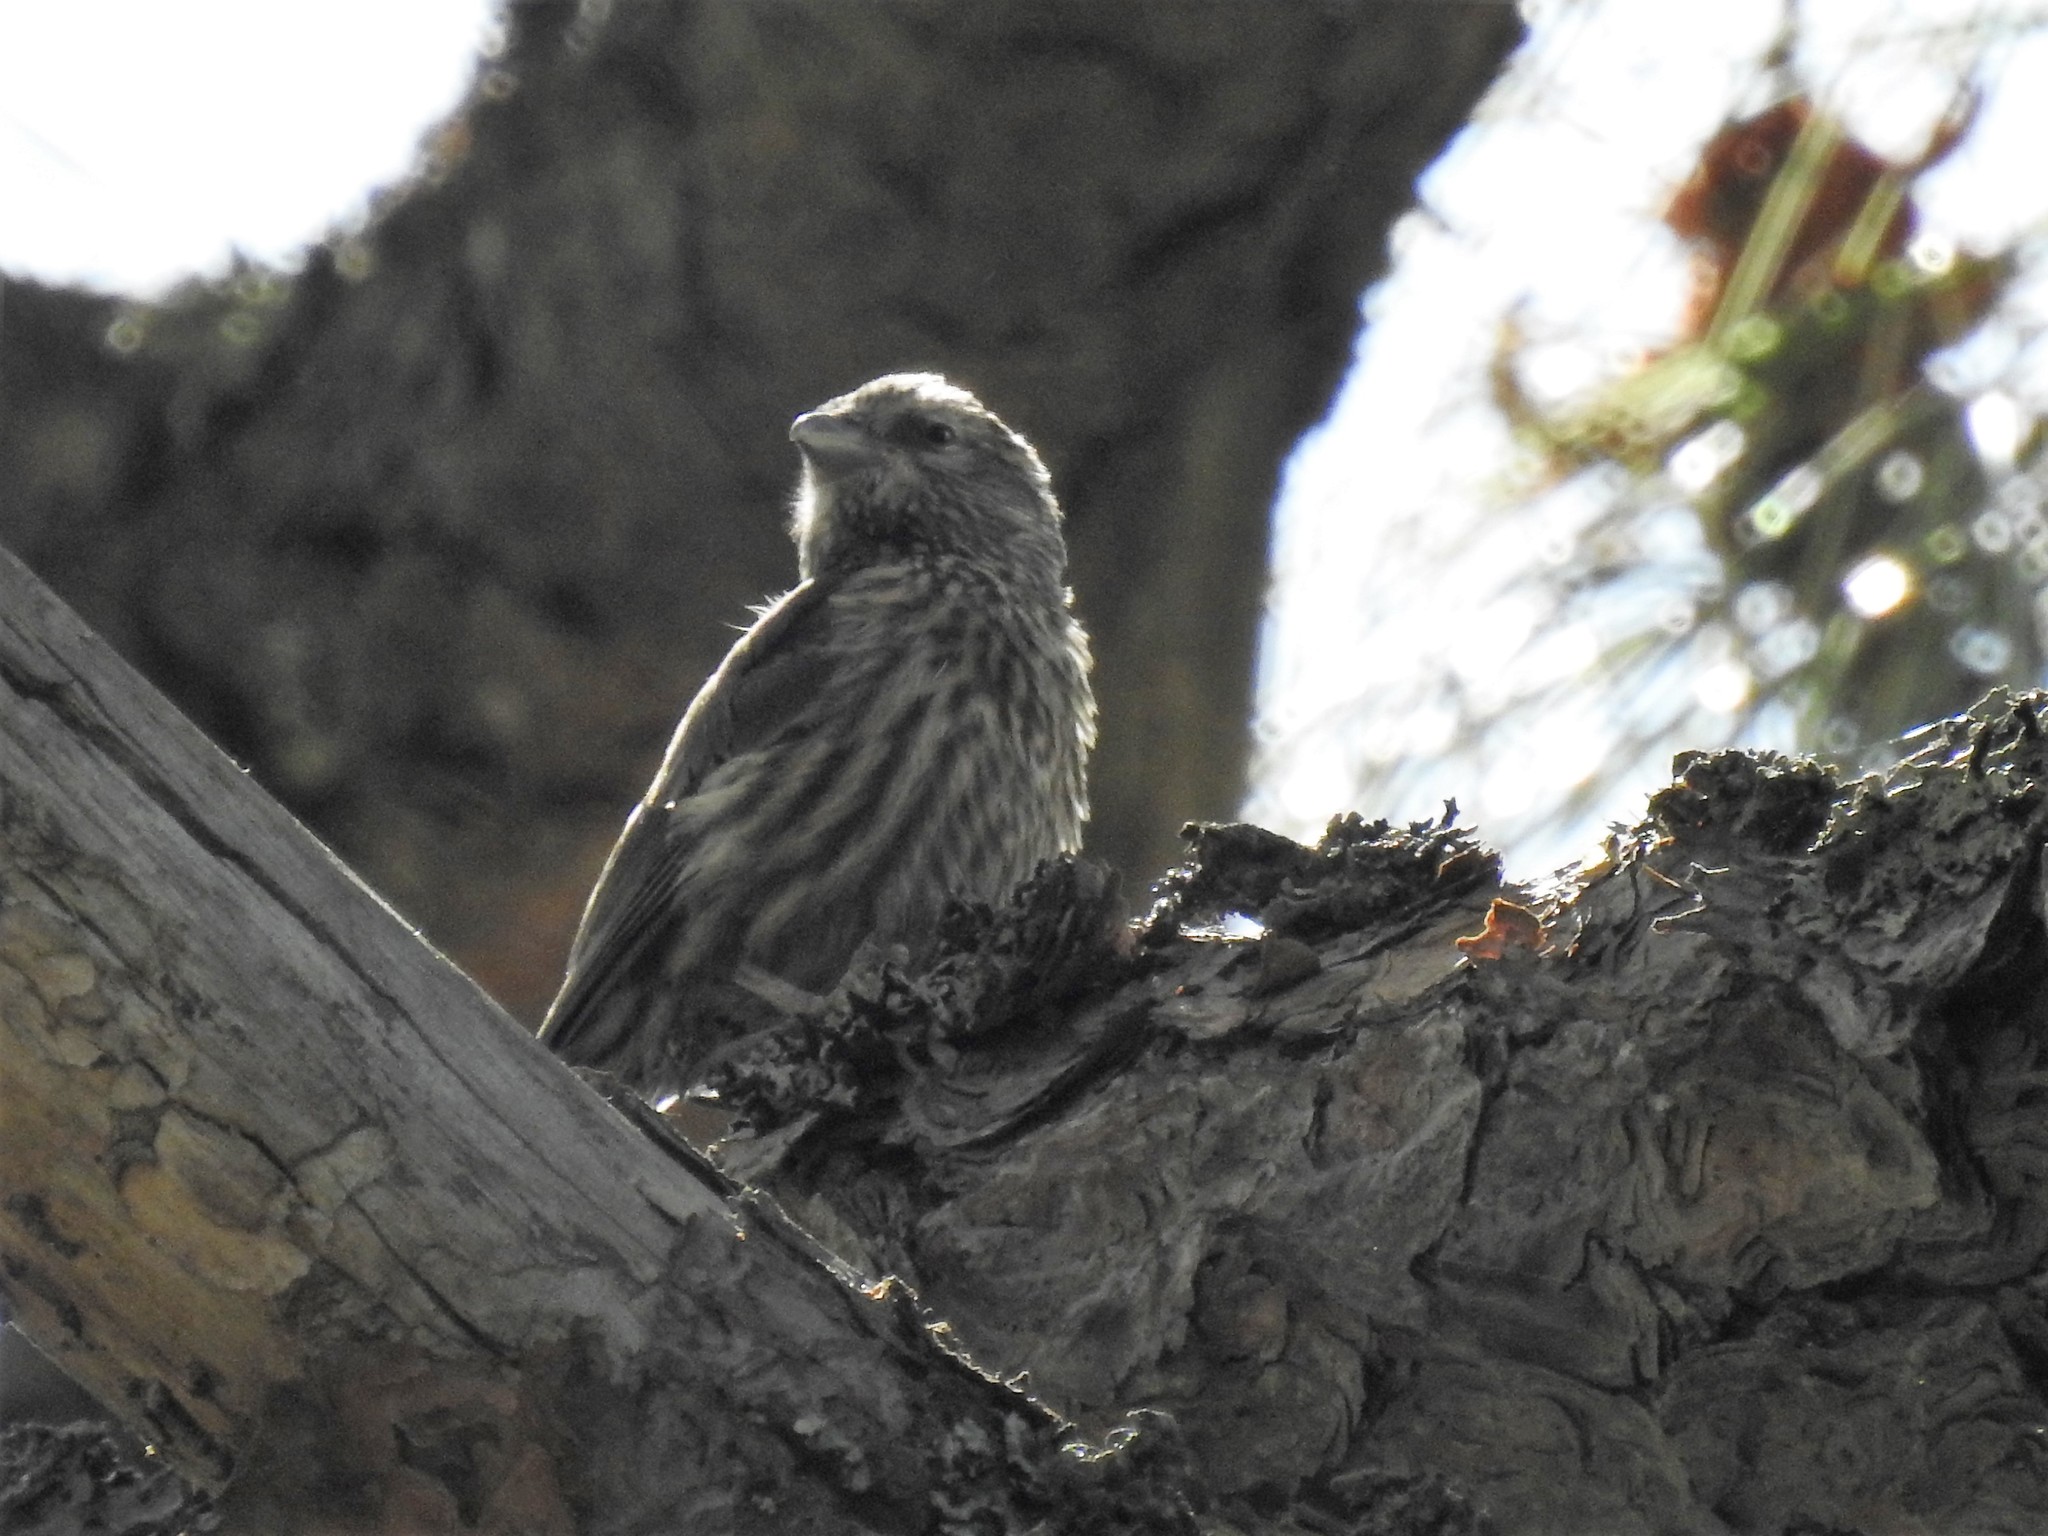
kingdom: Animalia
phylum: Chordata
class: Aves
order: Passeriformes
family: Fringillidae
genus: Loxia
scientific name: Loxia curvirostra
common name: Red crossbill
